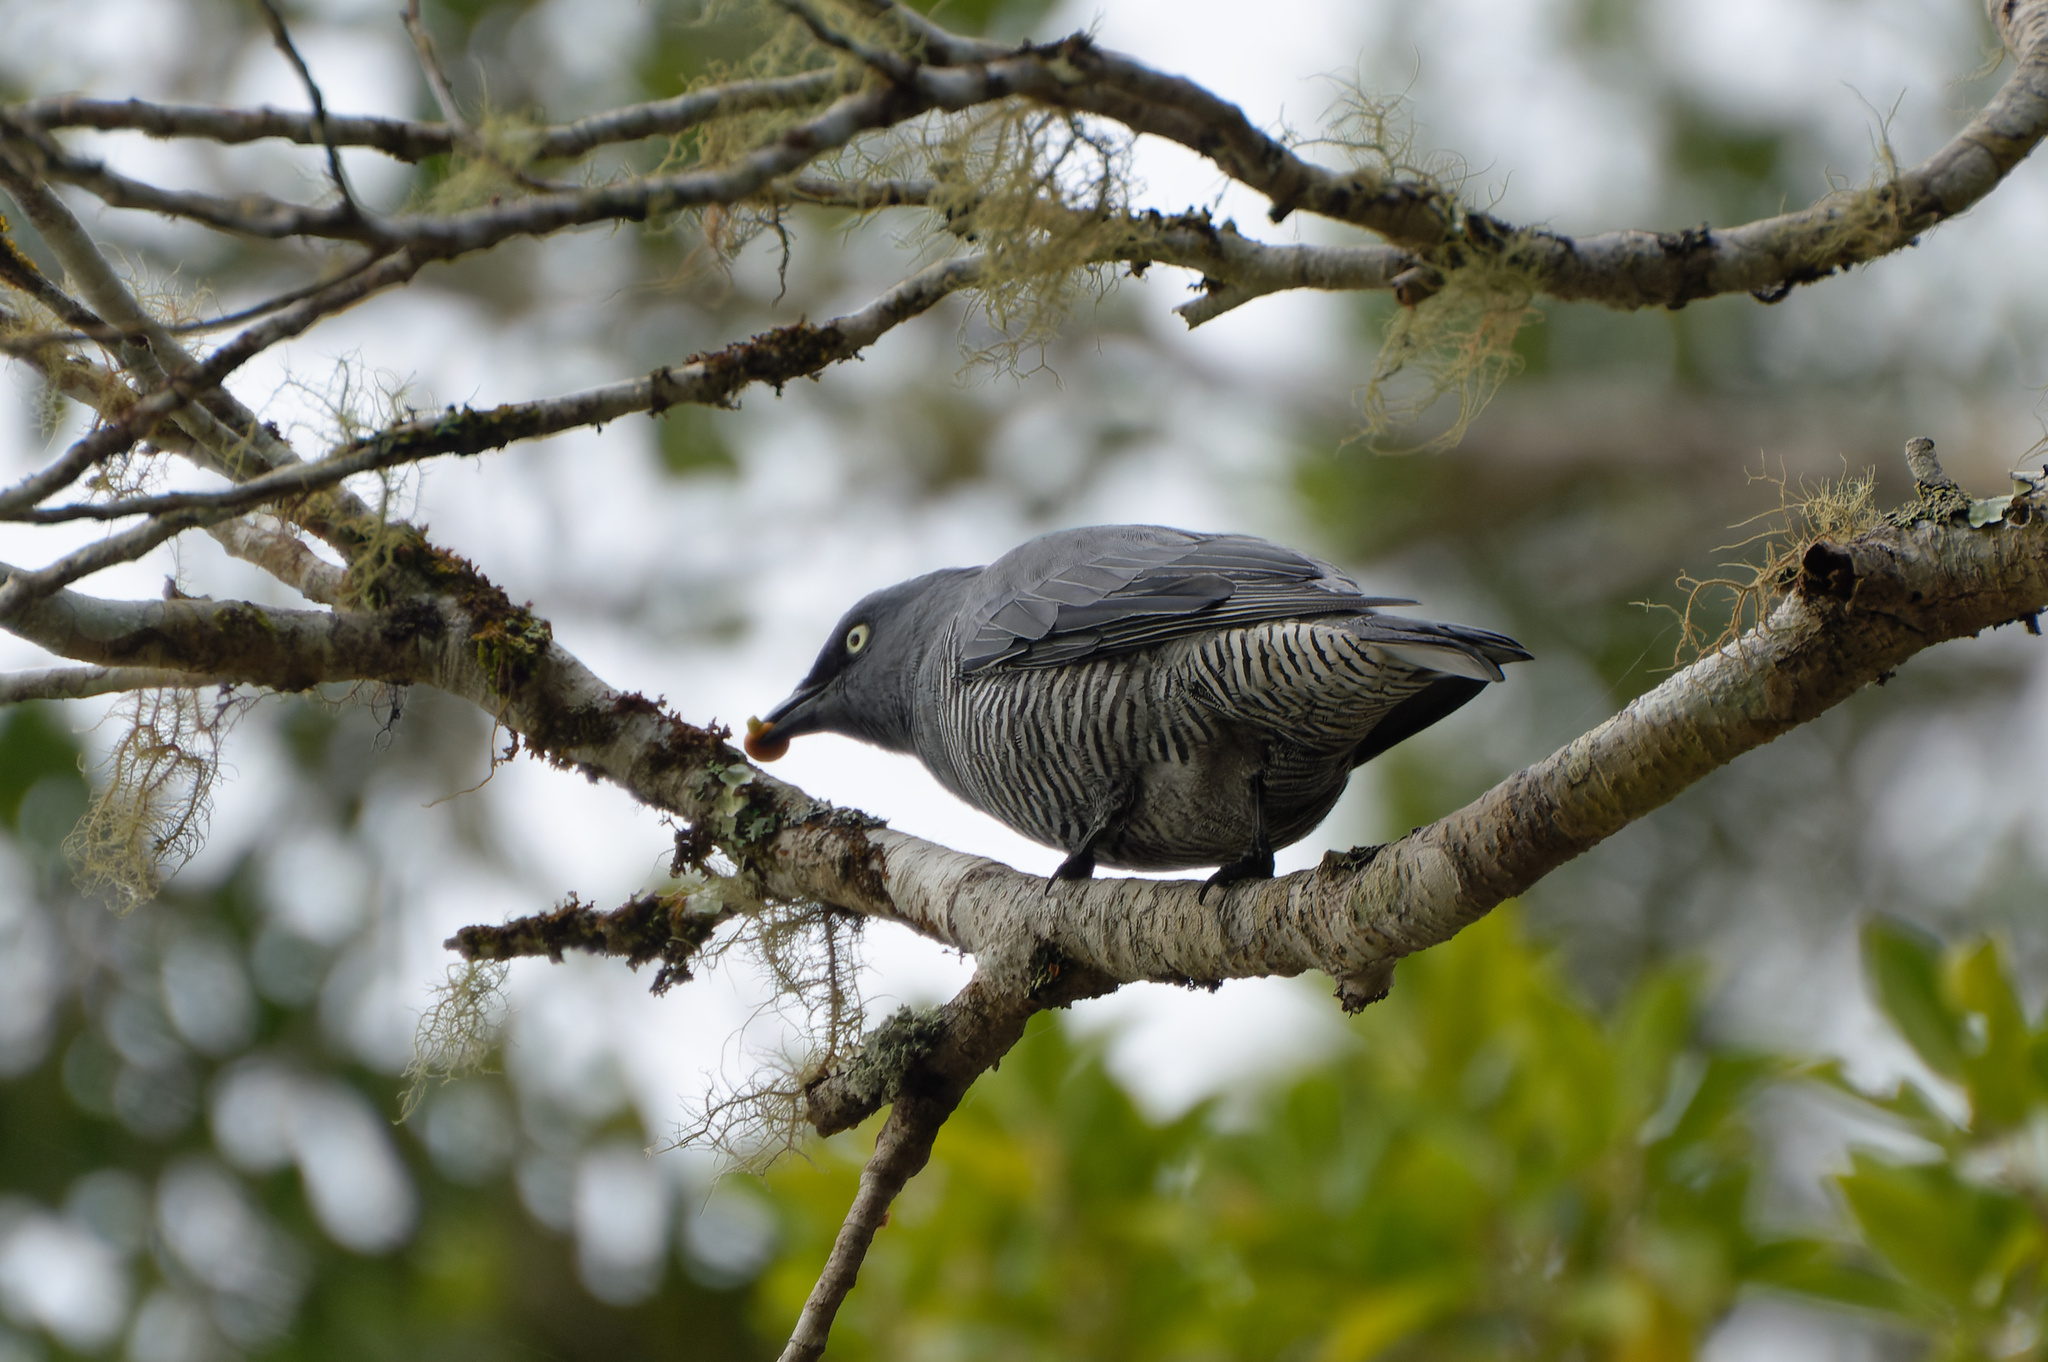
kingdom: Animalia
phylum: Chordata
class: Aves
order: Passeriformes
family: Campephagidae
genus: Coracina
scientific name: Coracina lineata
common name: Barred cuckooshrike
